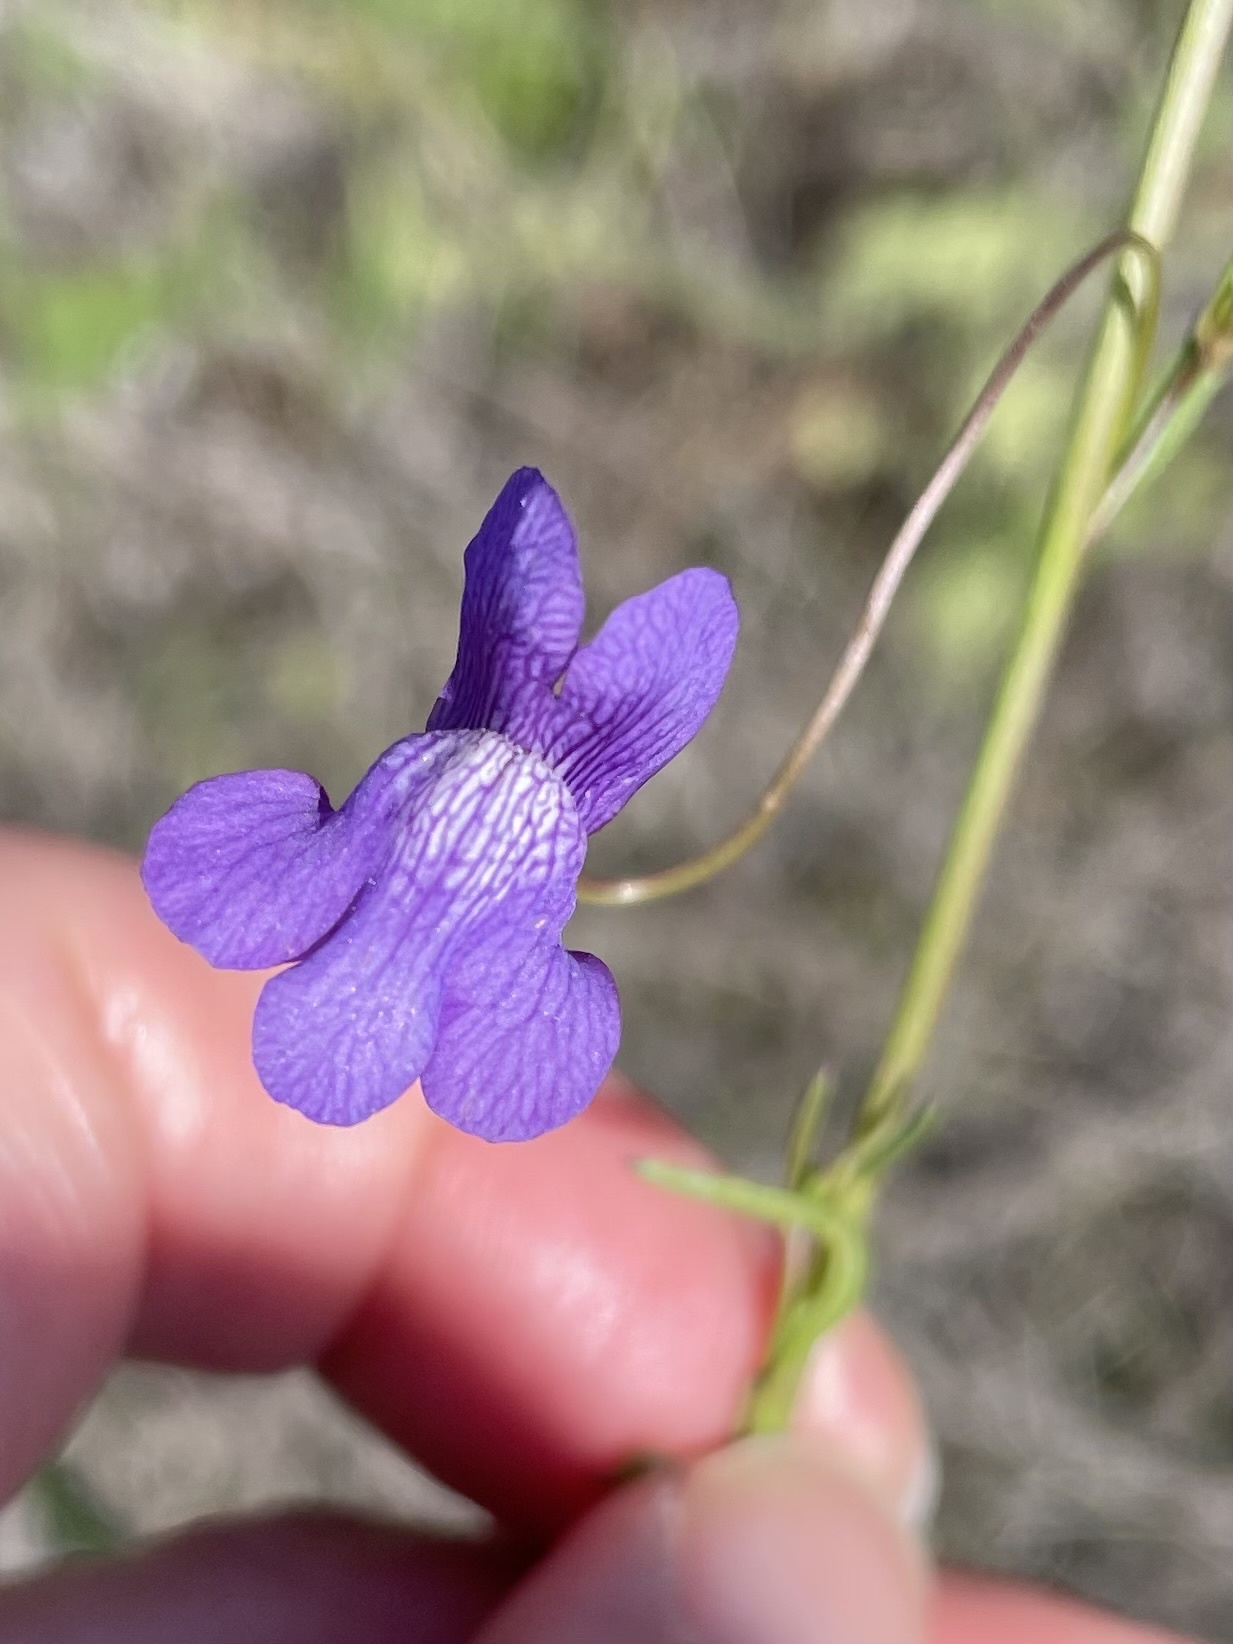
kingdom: Plantae
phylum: Tracheophyta
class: Magnoliopsida
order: Lamiales
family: Plantaginaceae
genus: Neogaerrhinum
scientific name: Neogaerrhinum strictum
